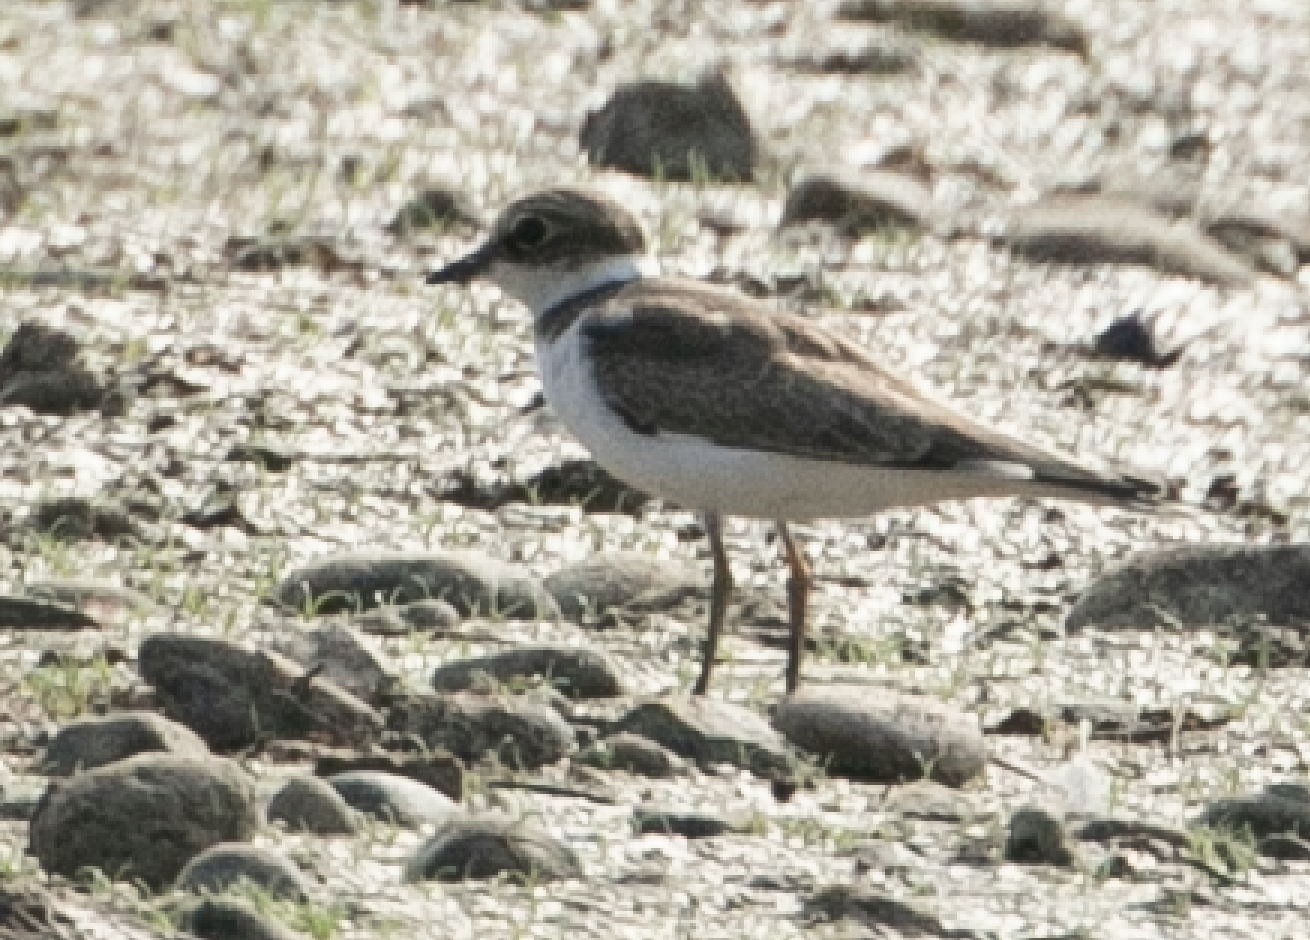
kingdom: Animalia
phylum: Chordata
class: Aves
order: Charadriiformes
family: Charadriidae
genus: Charadrius
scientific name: Charadrius dubius
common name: Little ringed plover
